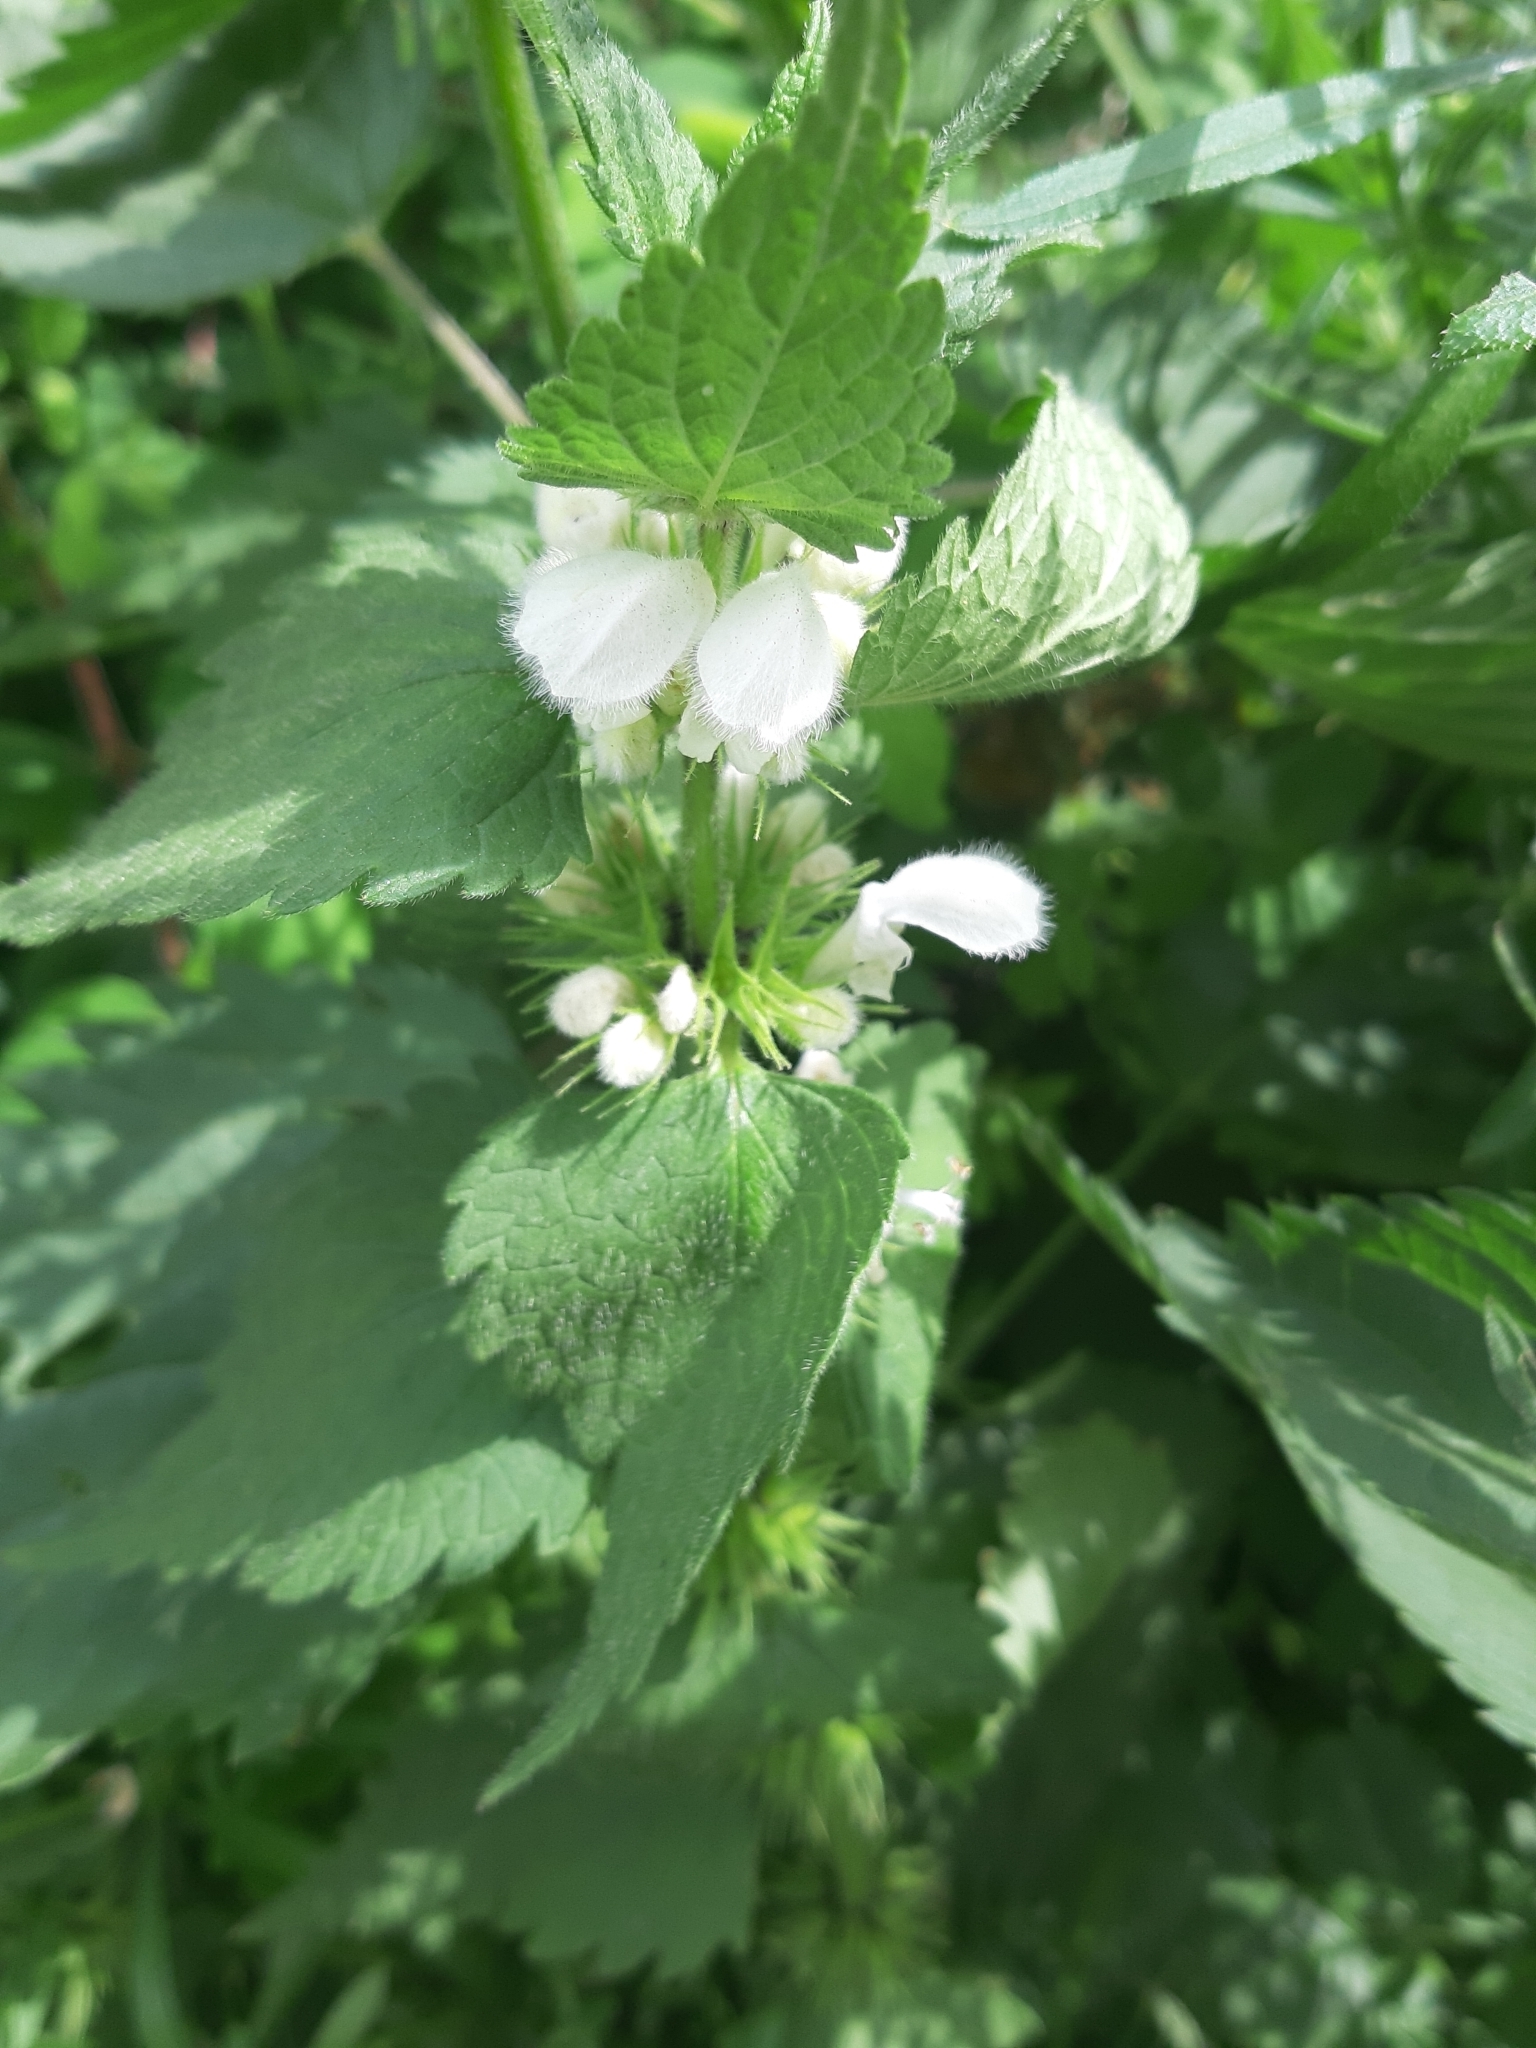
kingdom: Plantae
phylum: Tracheophyta
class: Magnoliopsida
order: Lamiales
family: Lamiaceae
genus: Lamium
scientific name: Lamium album
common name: White dead-nettle
